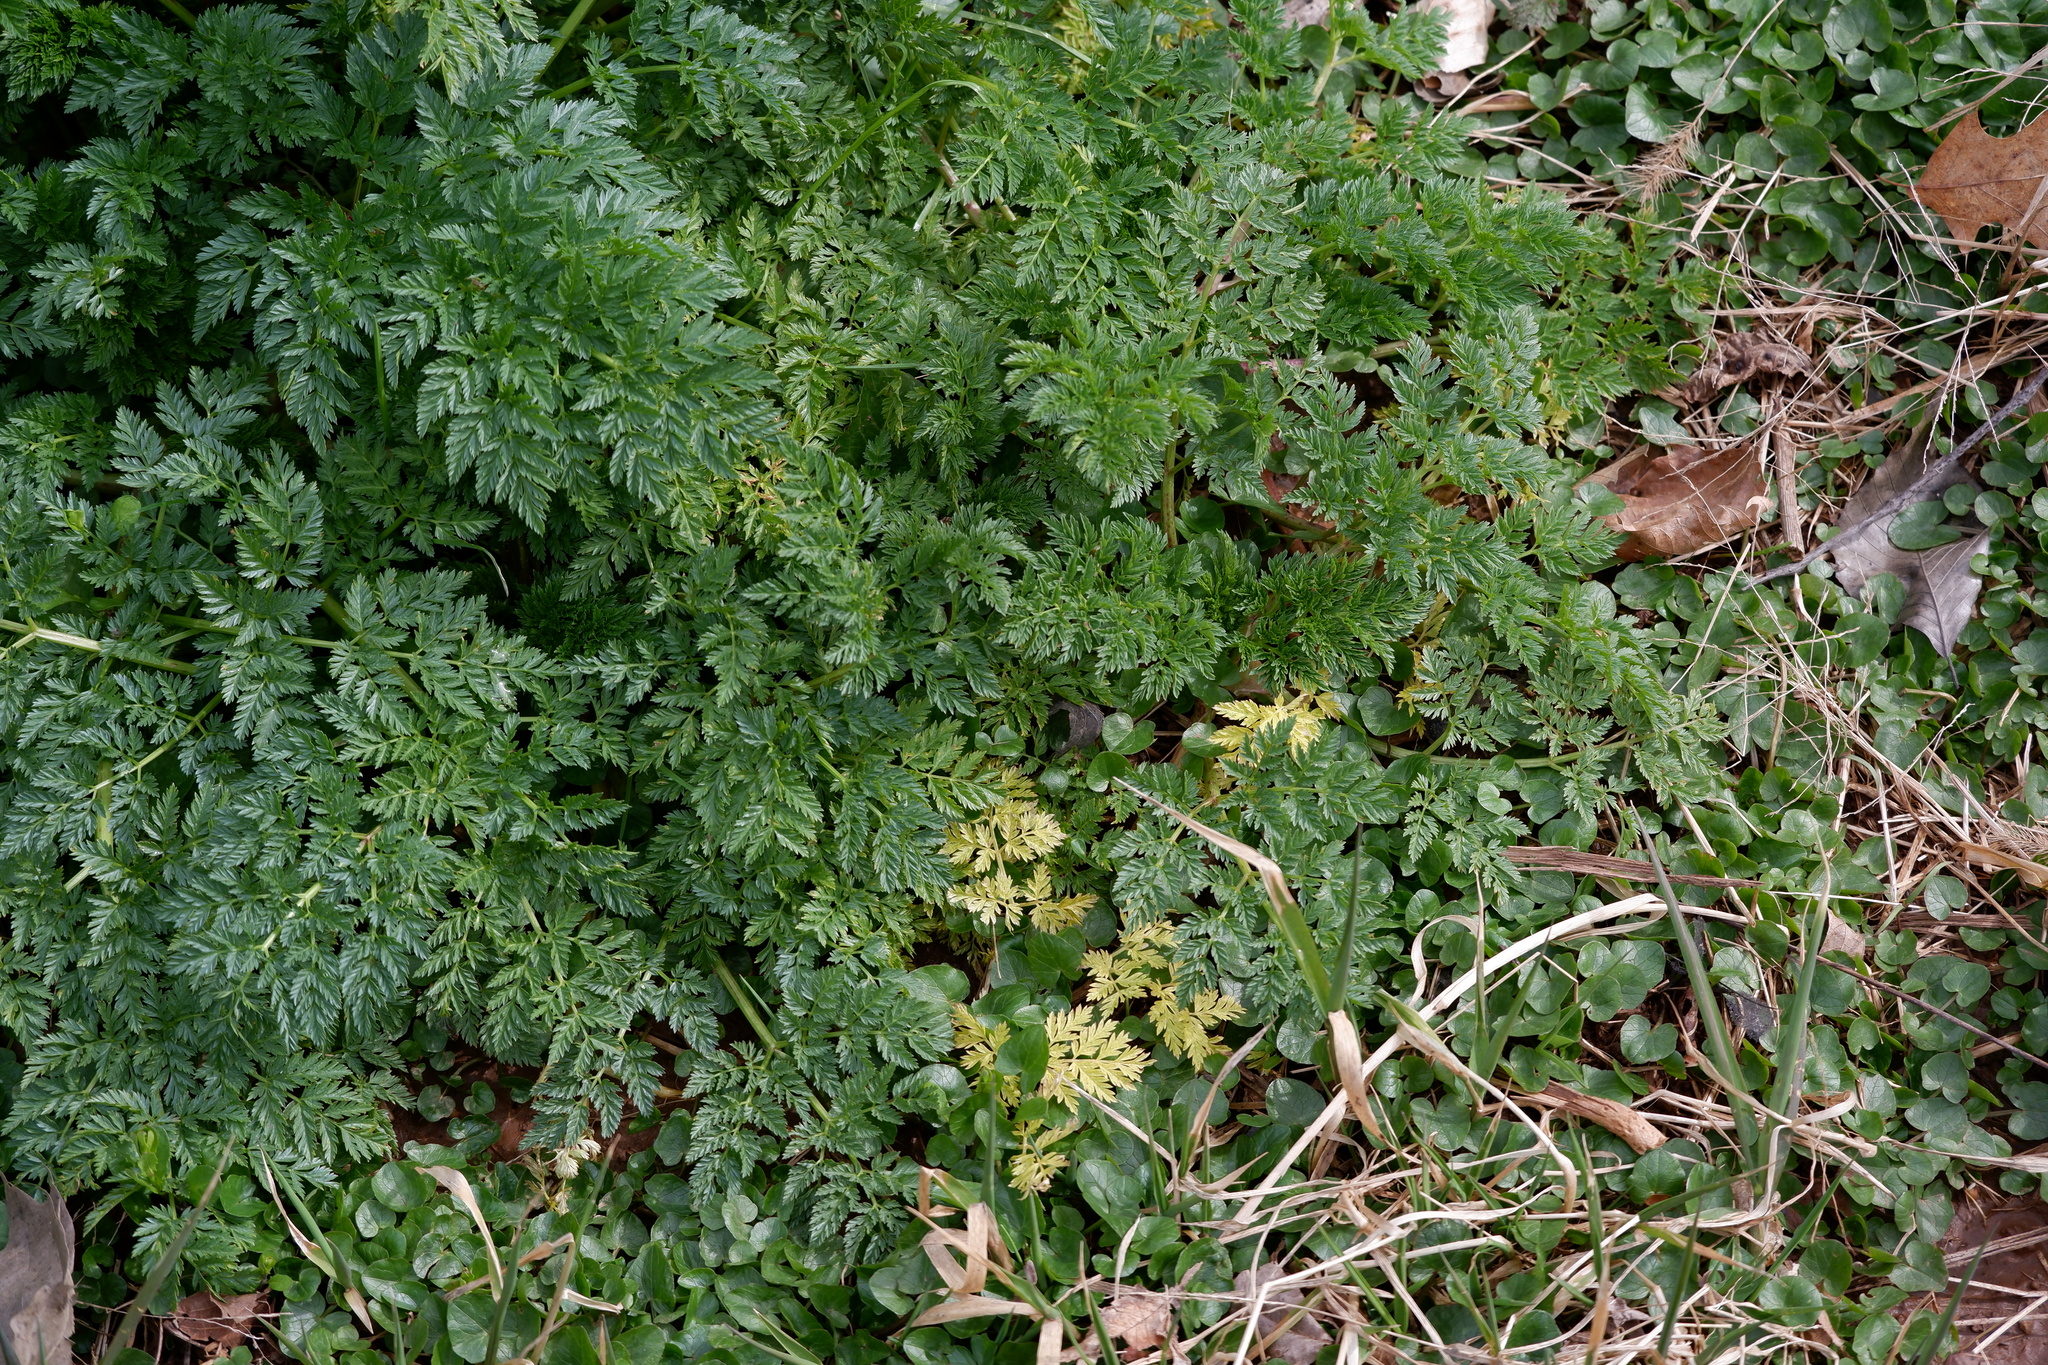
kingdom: Plantae
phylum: Tracheophyta
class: Magnoliopsida
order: Apiales
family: Apiaceae
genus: Conium
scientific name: Conium maculatum
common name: Hemlock
